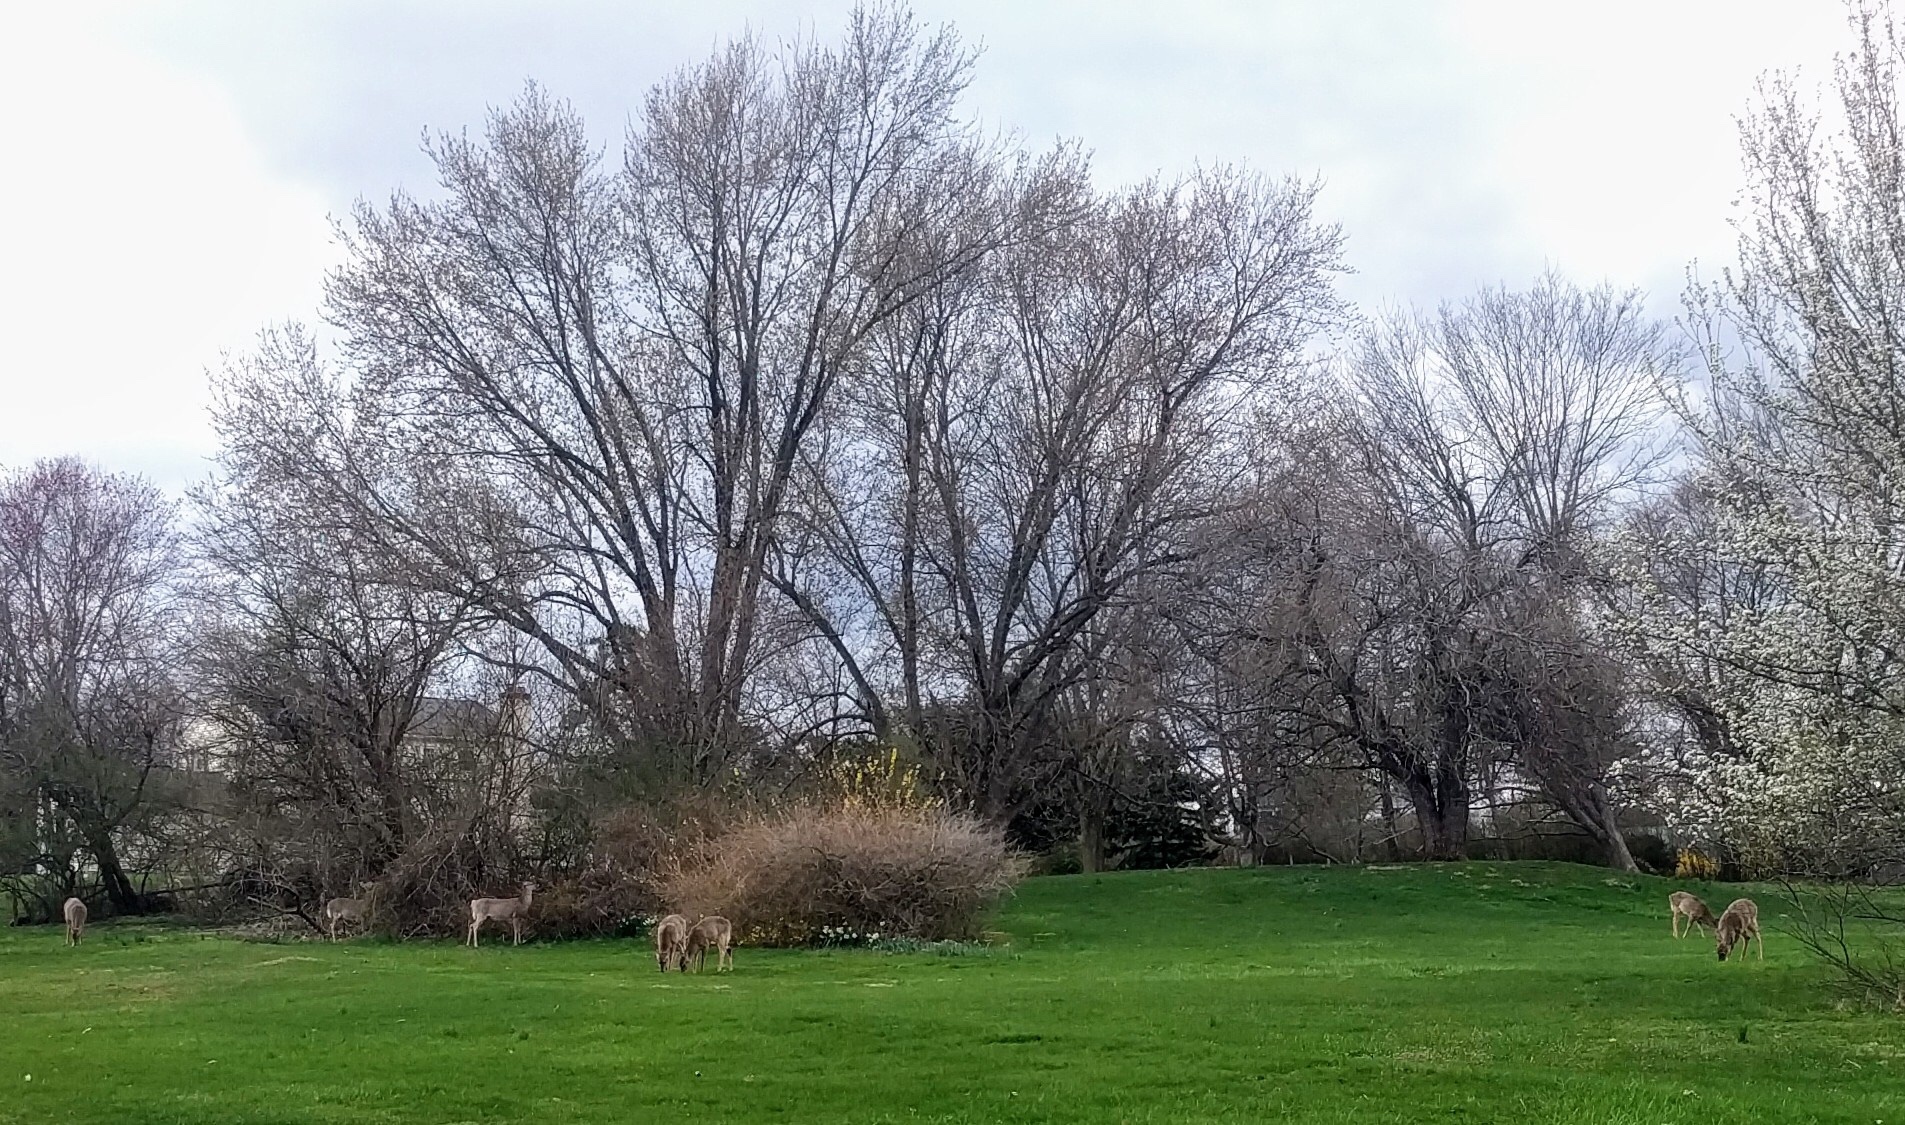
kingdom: Animalia
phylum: Chordata
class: Mammalia
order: Artiodactyla
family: Cervidae
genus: Odocoileus
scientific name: Odocoileus virginianus
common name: White-tailed deer
